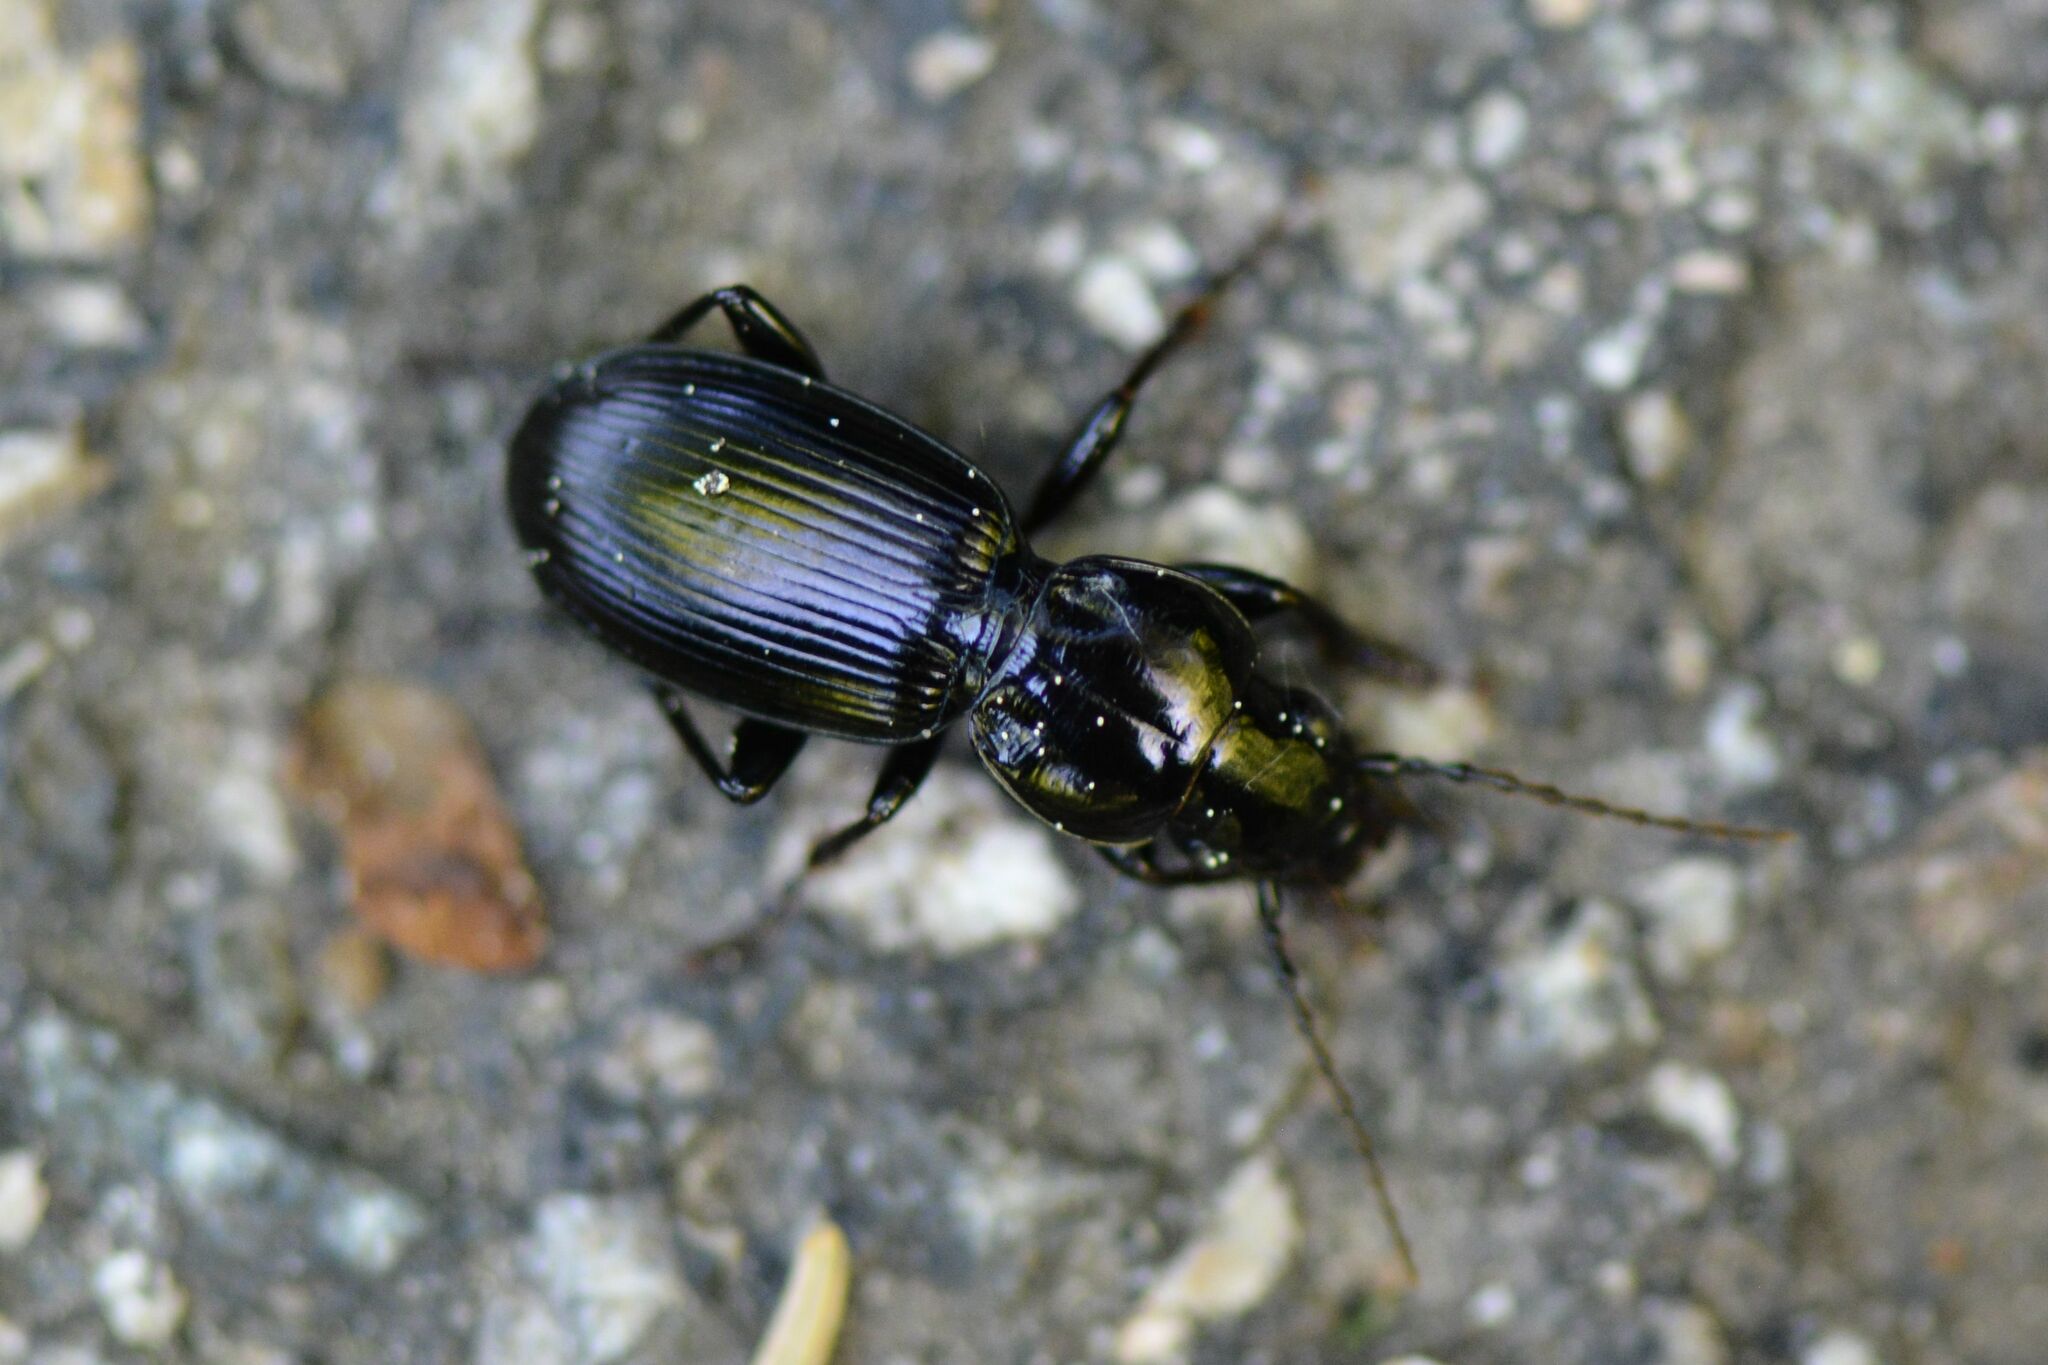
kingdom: Animalia
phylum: Arthropoda
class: Insecta
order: Coleoptera
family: Carabidae
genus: Pterostichus
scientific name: Pterostichus madidus
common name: Black clock
